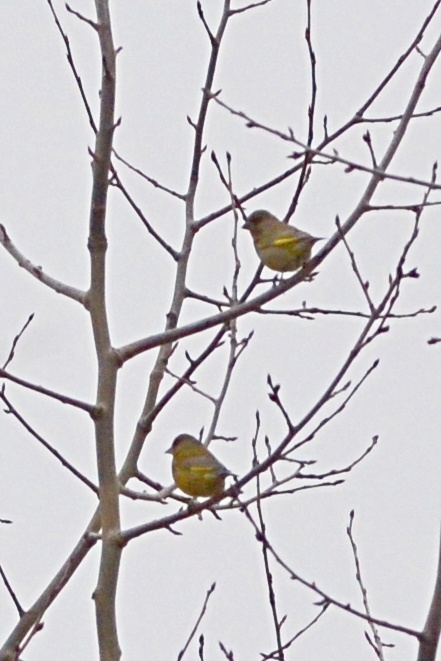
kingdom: Plantae
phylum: Tracheophyta
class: Liliopsida
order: Poales
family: Poaceae
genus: Chloris
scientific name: Chloris chloris
